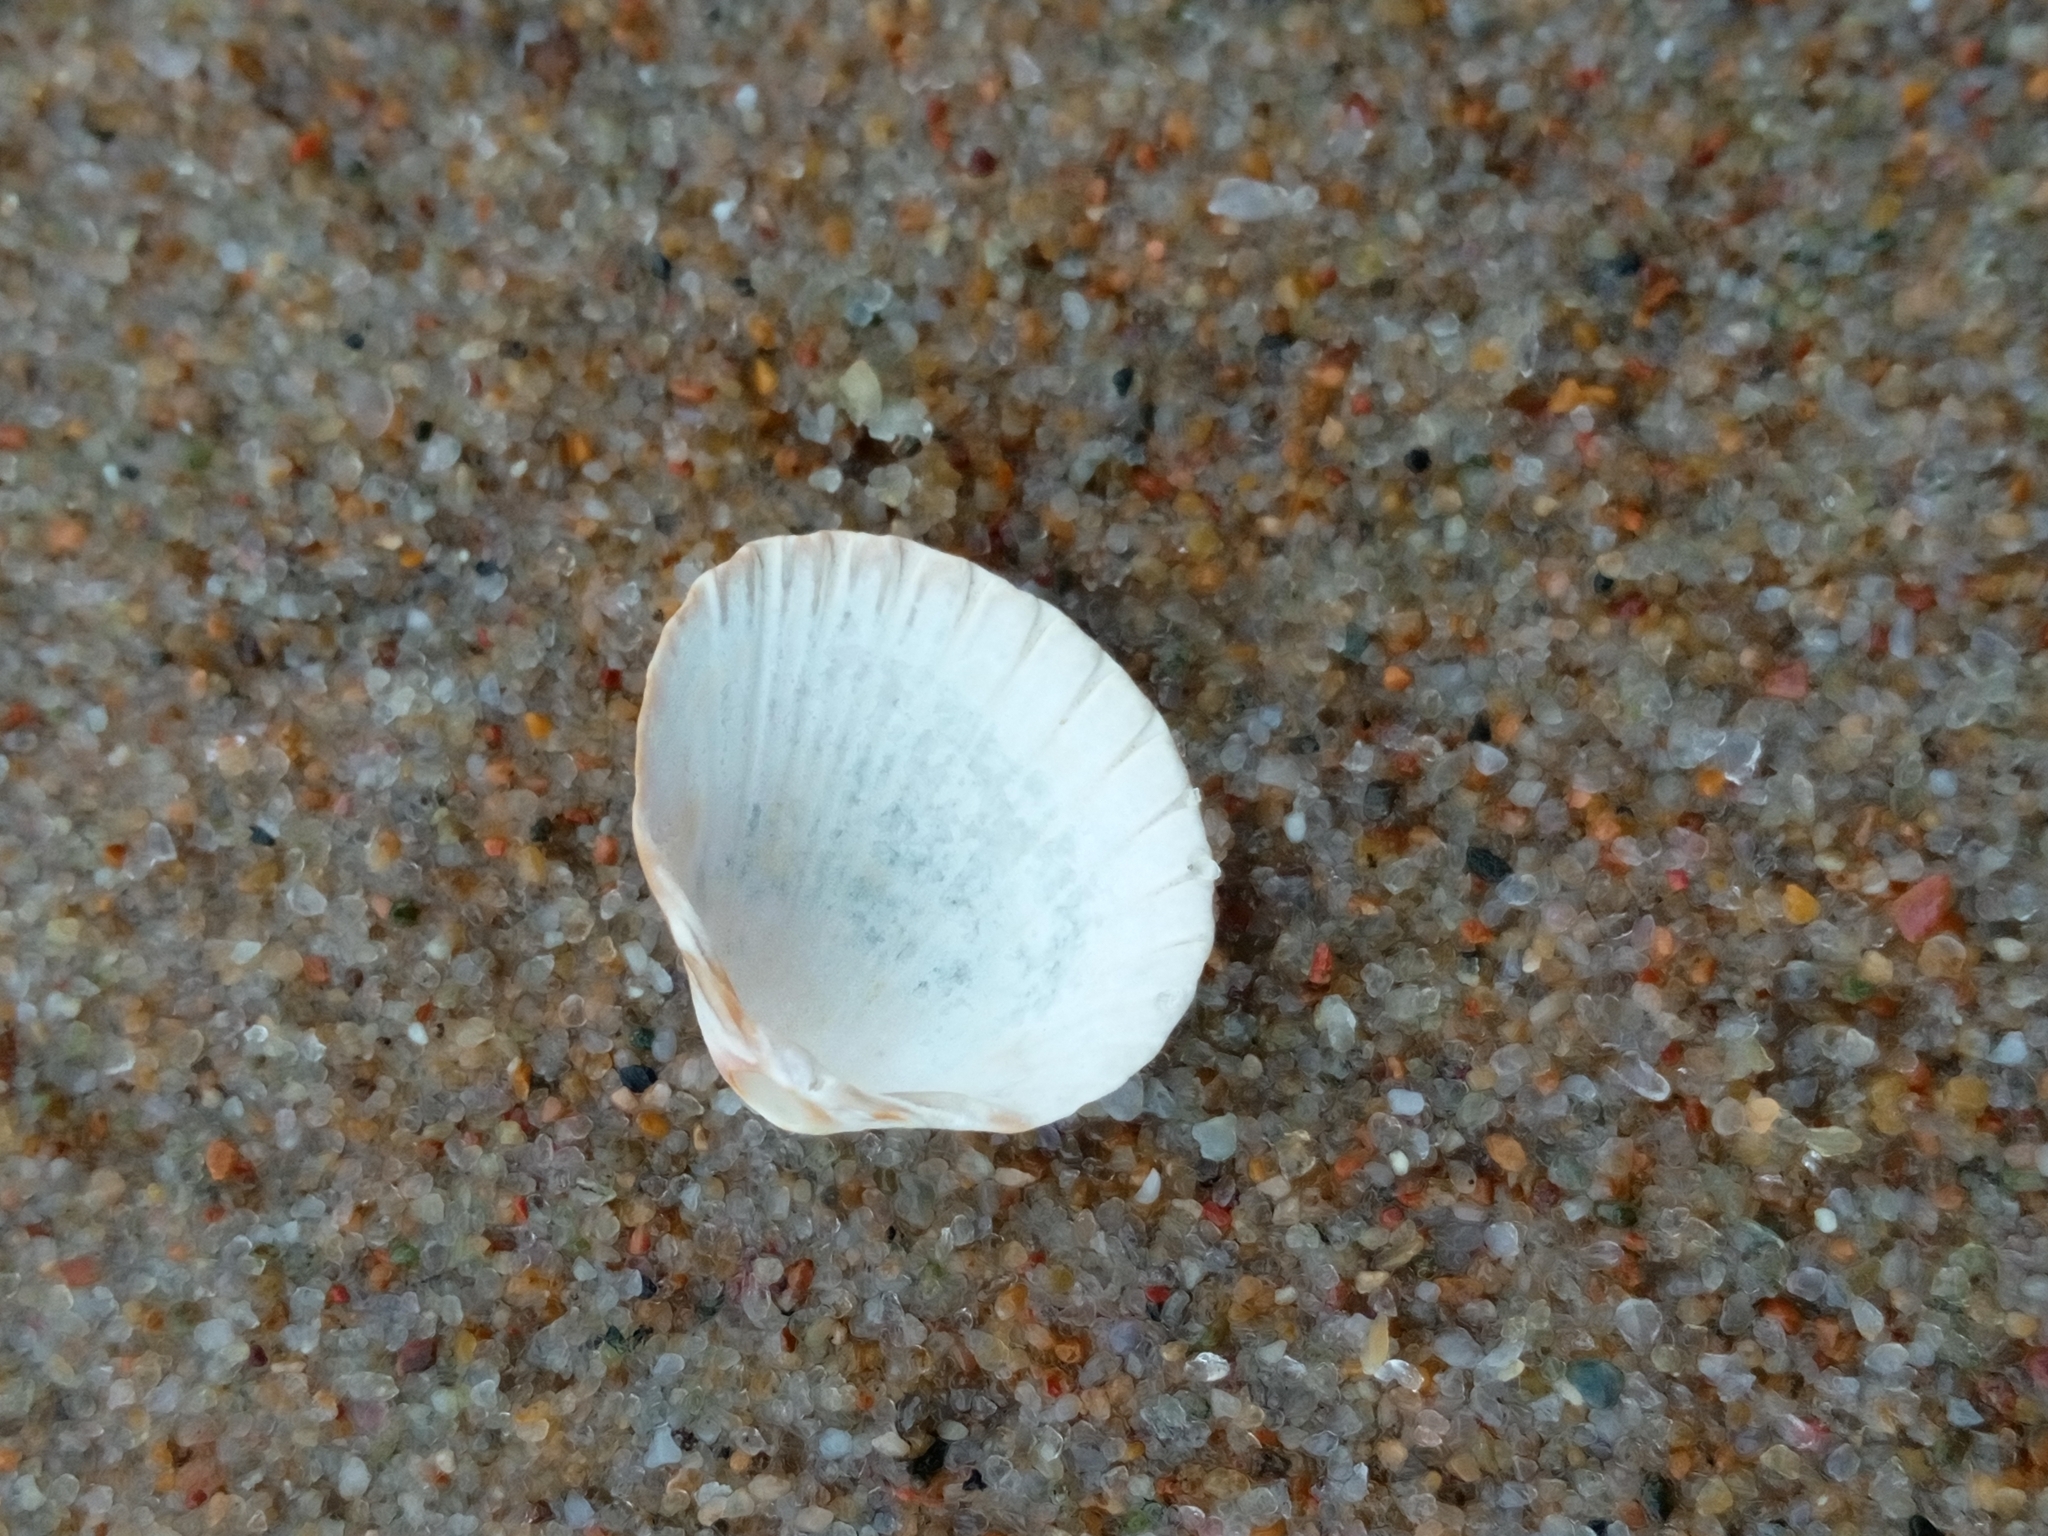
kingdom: Animalia
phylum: Mollusca
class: Bivalvia
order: Cardiida
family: Cardiidae
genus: Cerastoderma
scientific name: Cerastoderma glaucum
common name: Lagoon cockle
